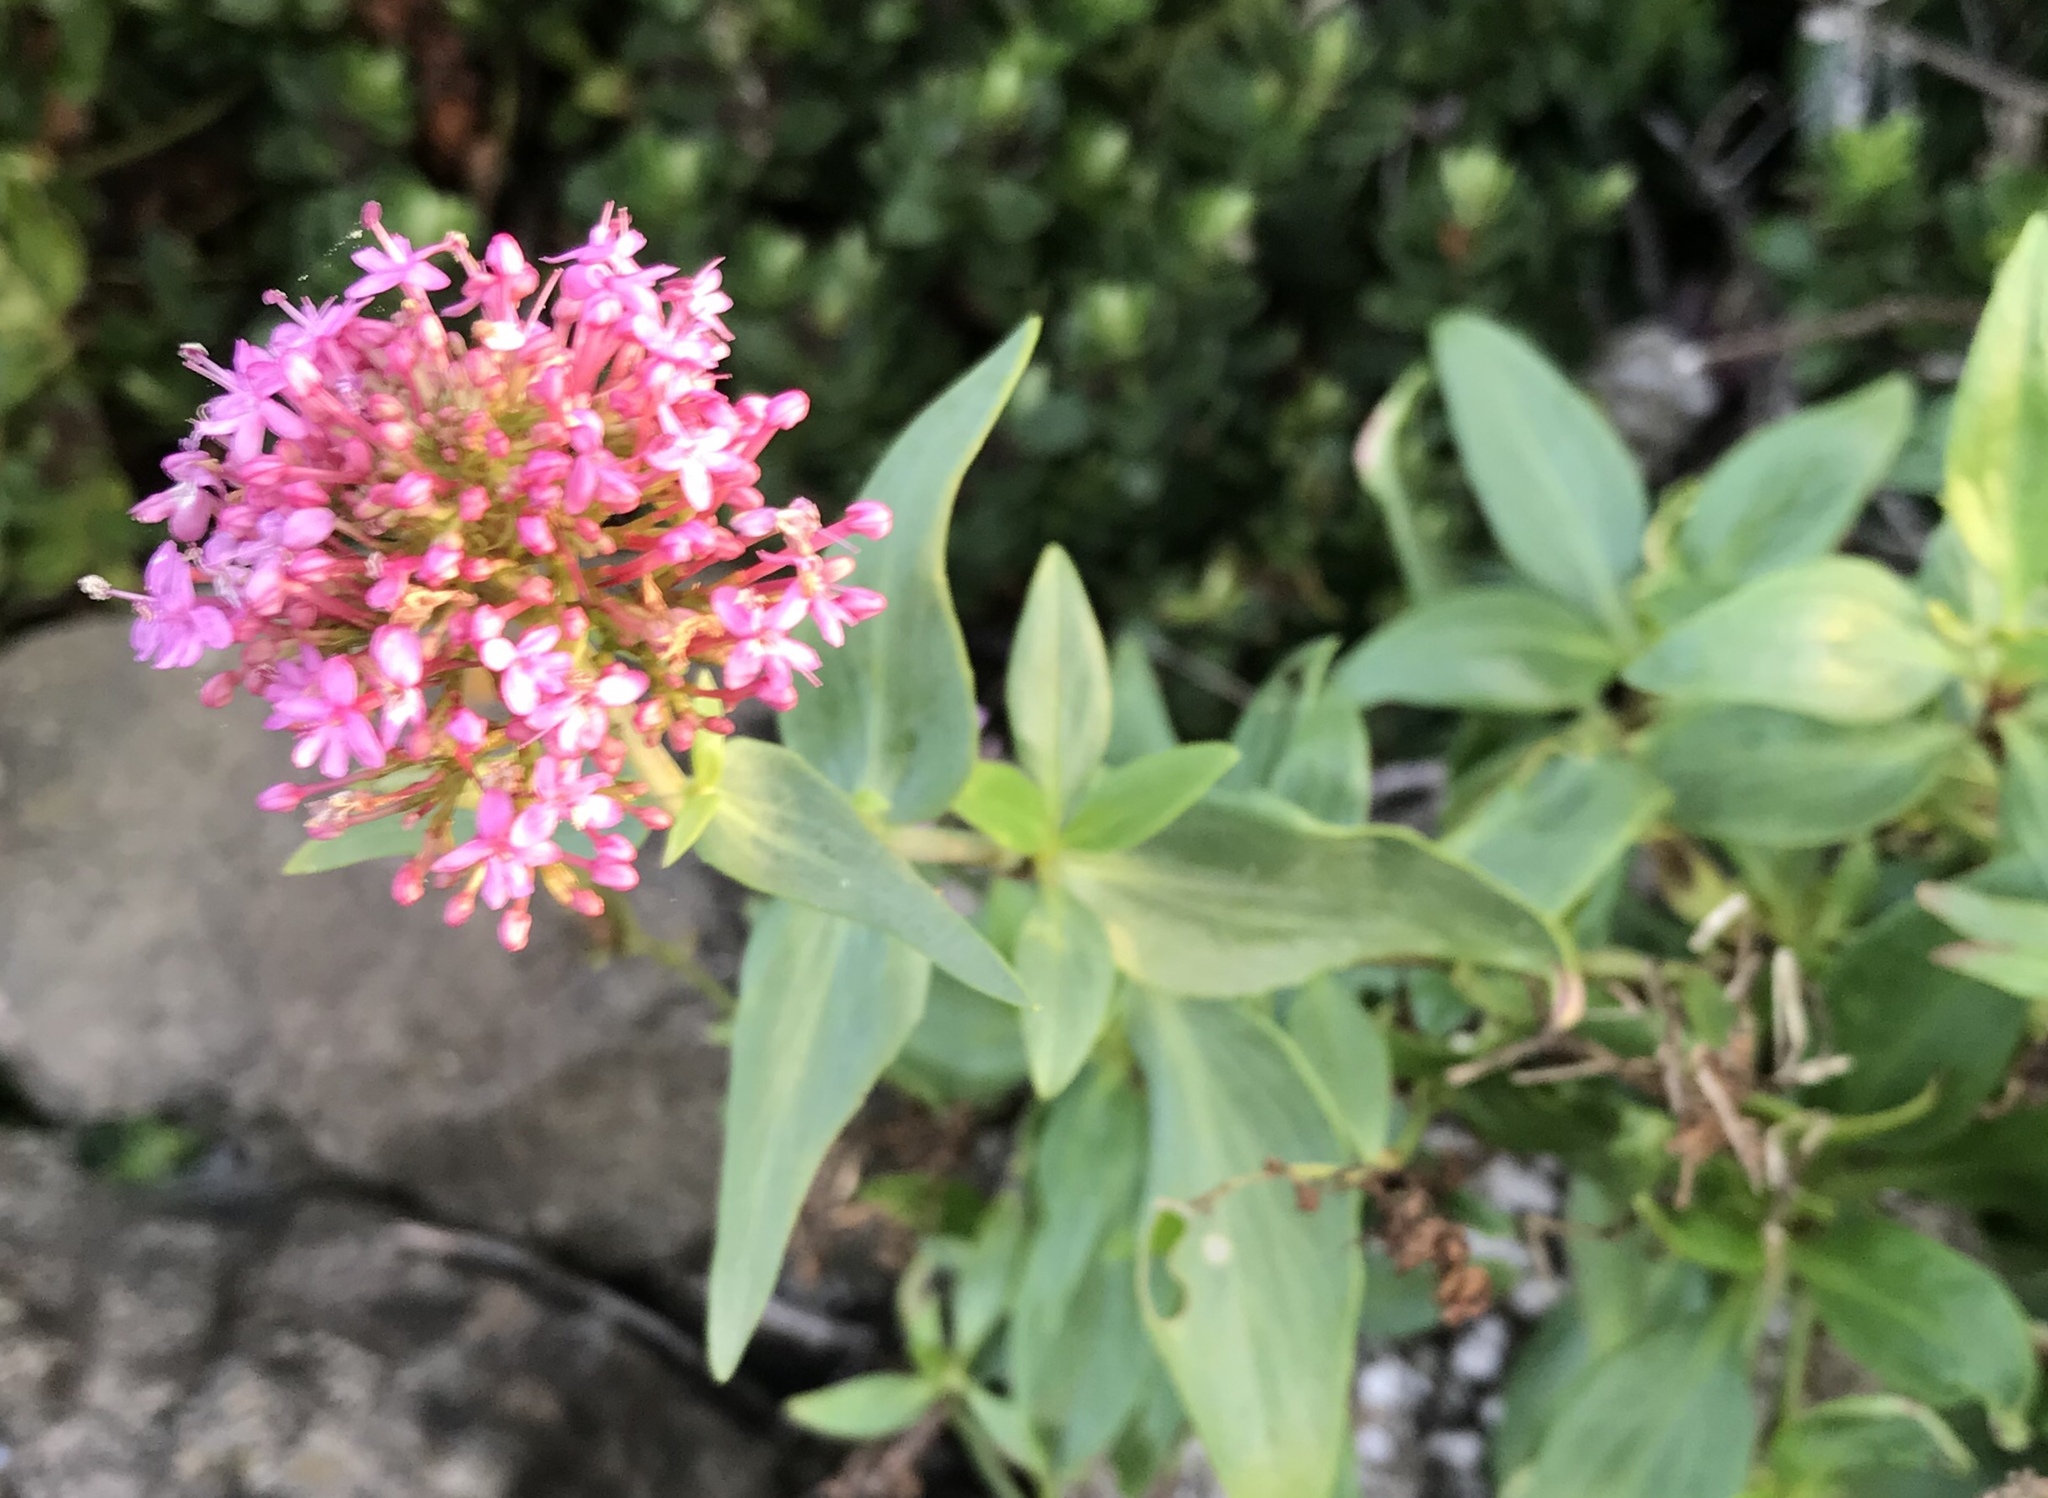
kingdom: Plantae
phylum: Tracheophyta
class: Magnoliopsida
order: Dipsacales
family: Caprifoliaceae
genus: Centranthus
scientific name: Centranthus ruber
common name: Red valerian
